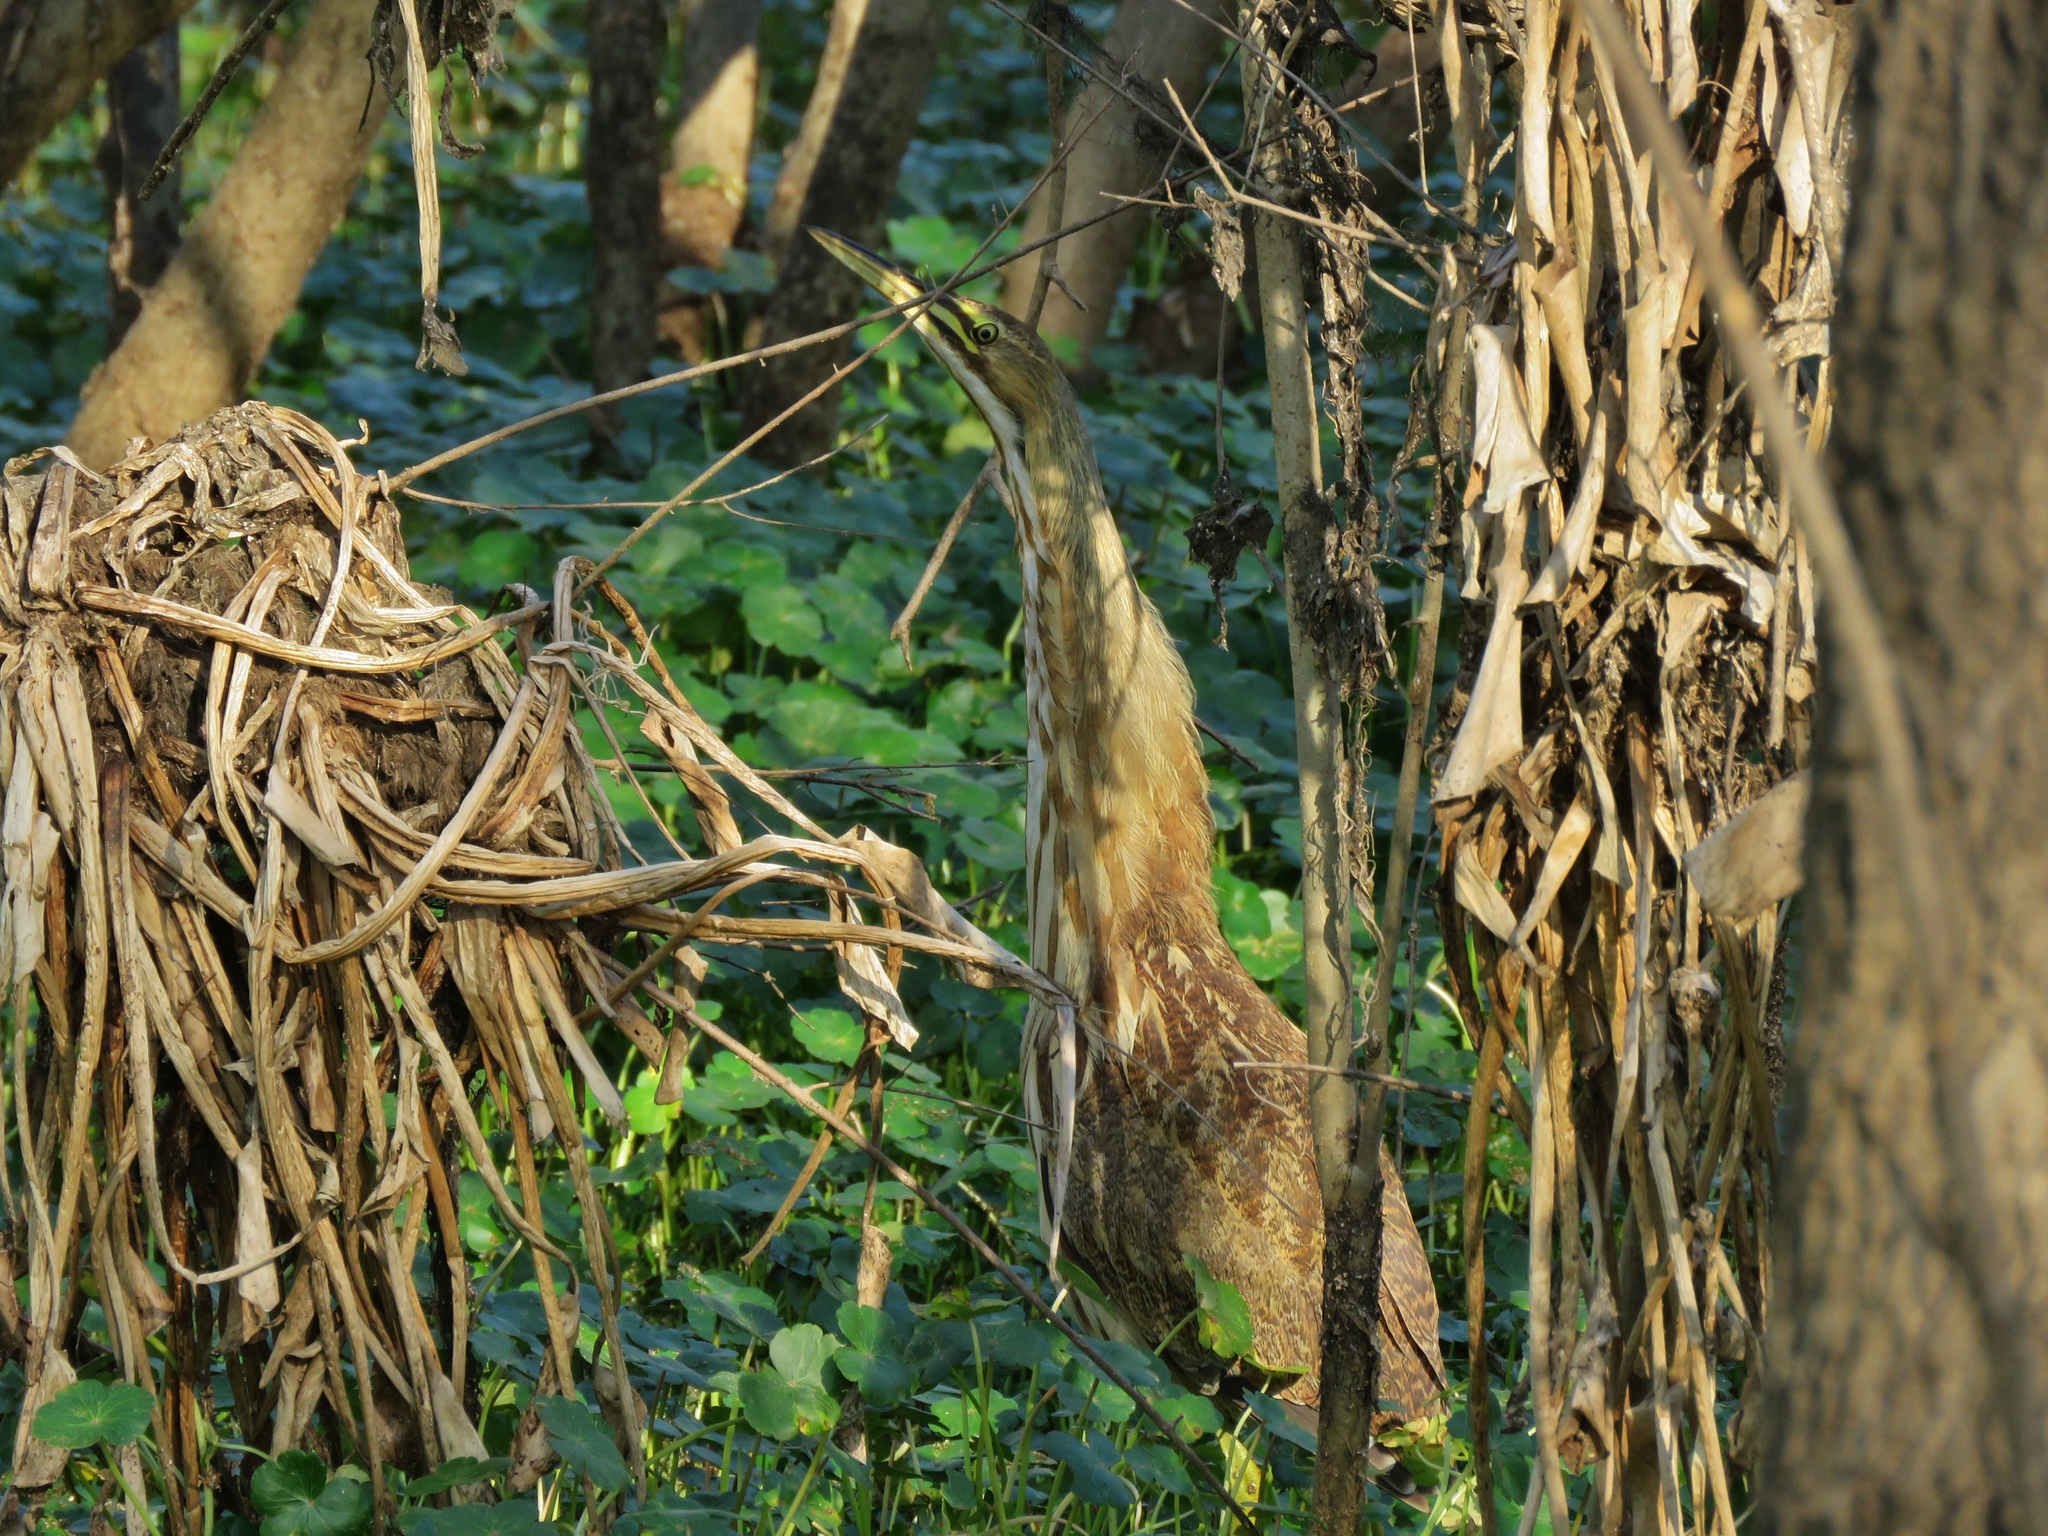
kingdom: Animalia
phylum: Chordata
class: Aves
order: Pelecaniformes
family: Ardeidae
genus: Botaurus
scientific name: Botaurus lentiginosus
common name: American bittern
